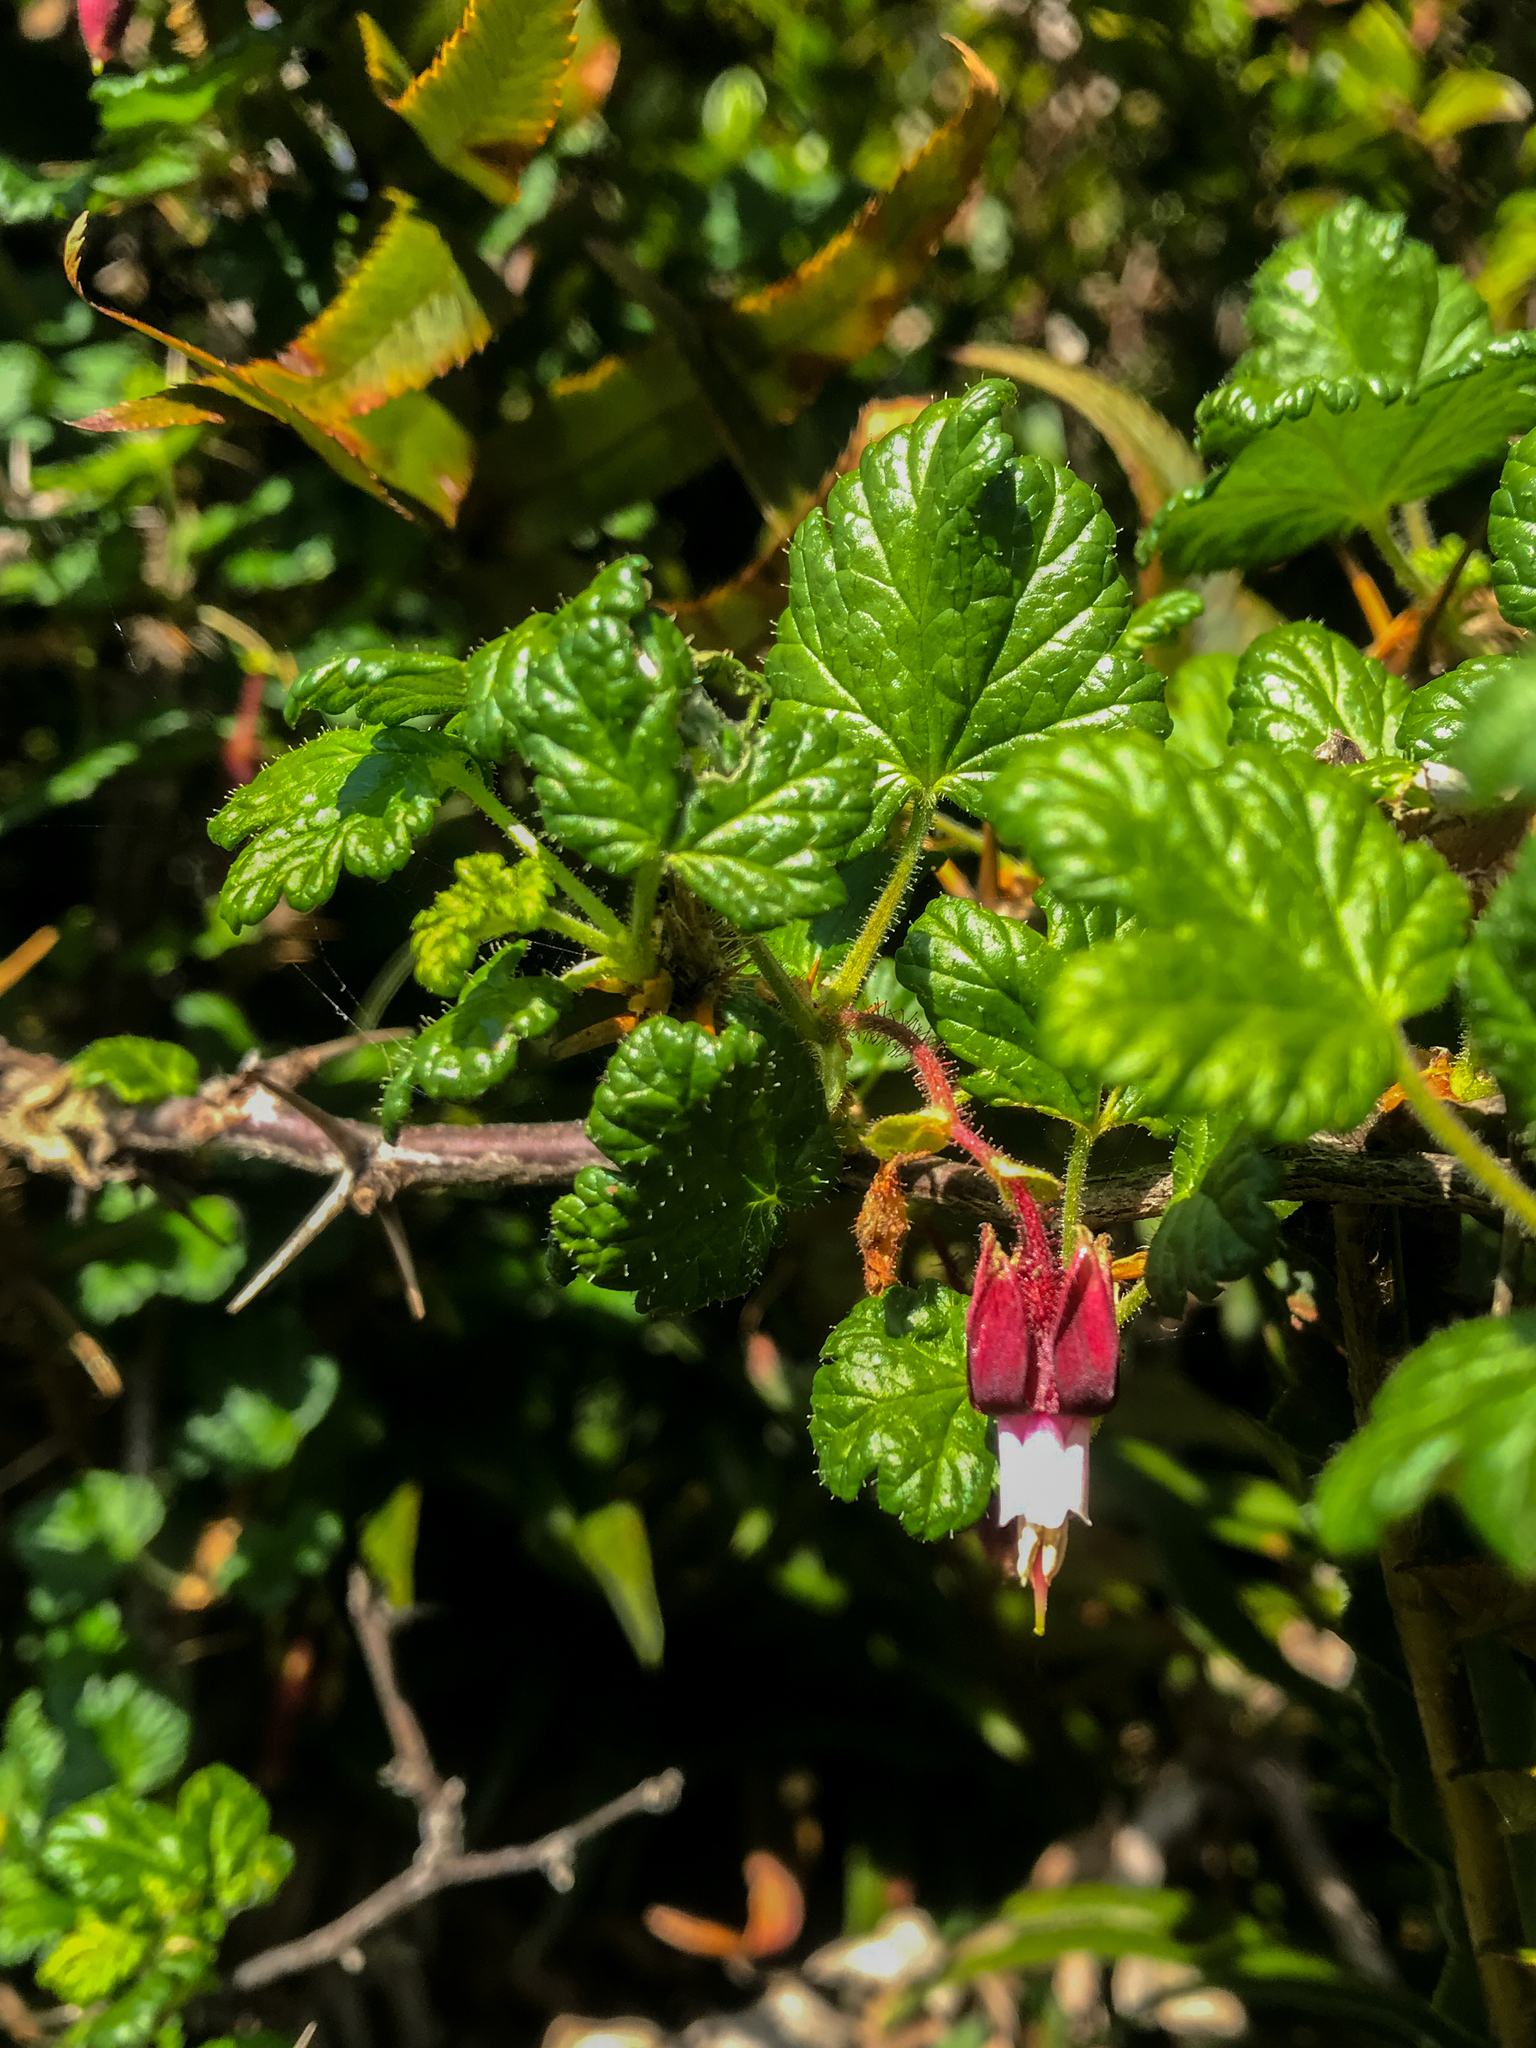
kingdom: Plantae
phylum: Tracheophyta
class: Magnoliopsida
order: Saxifragales
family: Grossulariaceae
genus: Ribes
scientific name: Ribes menziesii
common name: Canyon gooseberry
